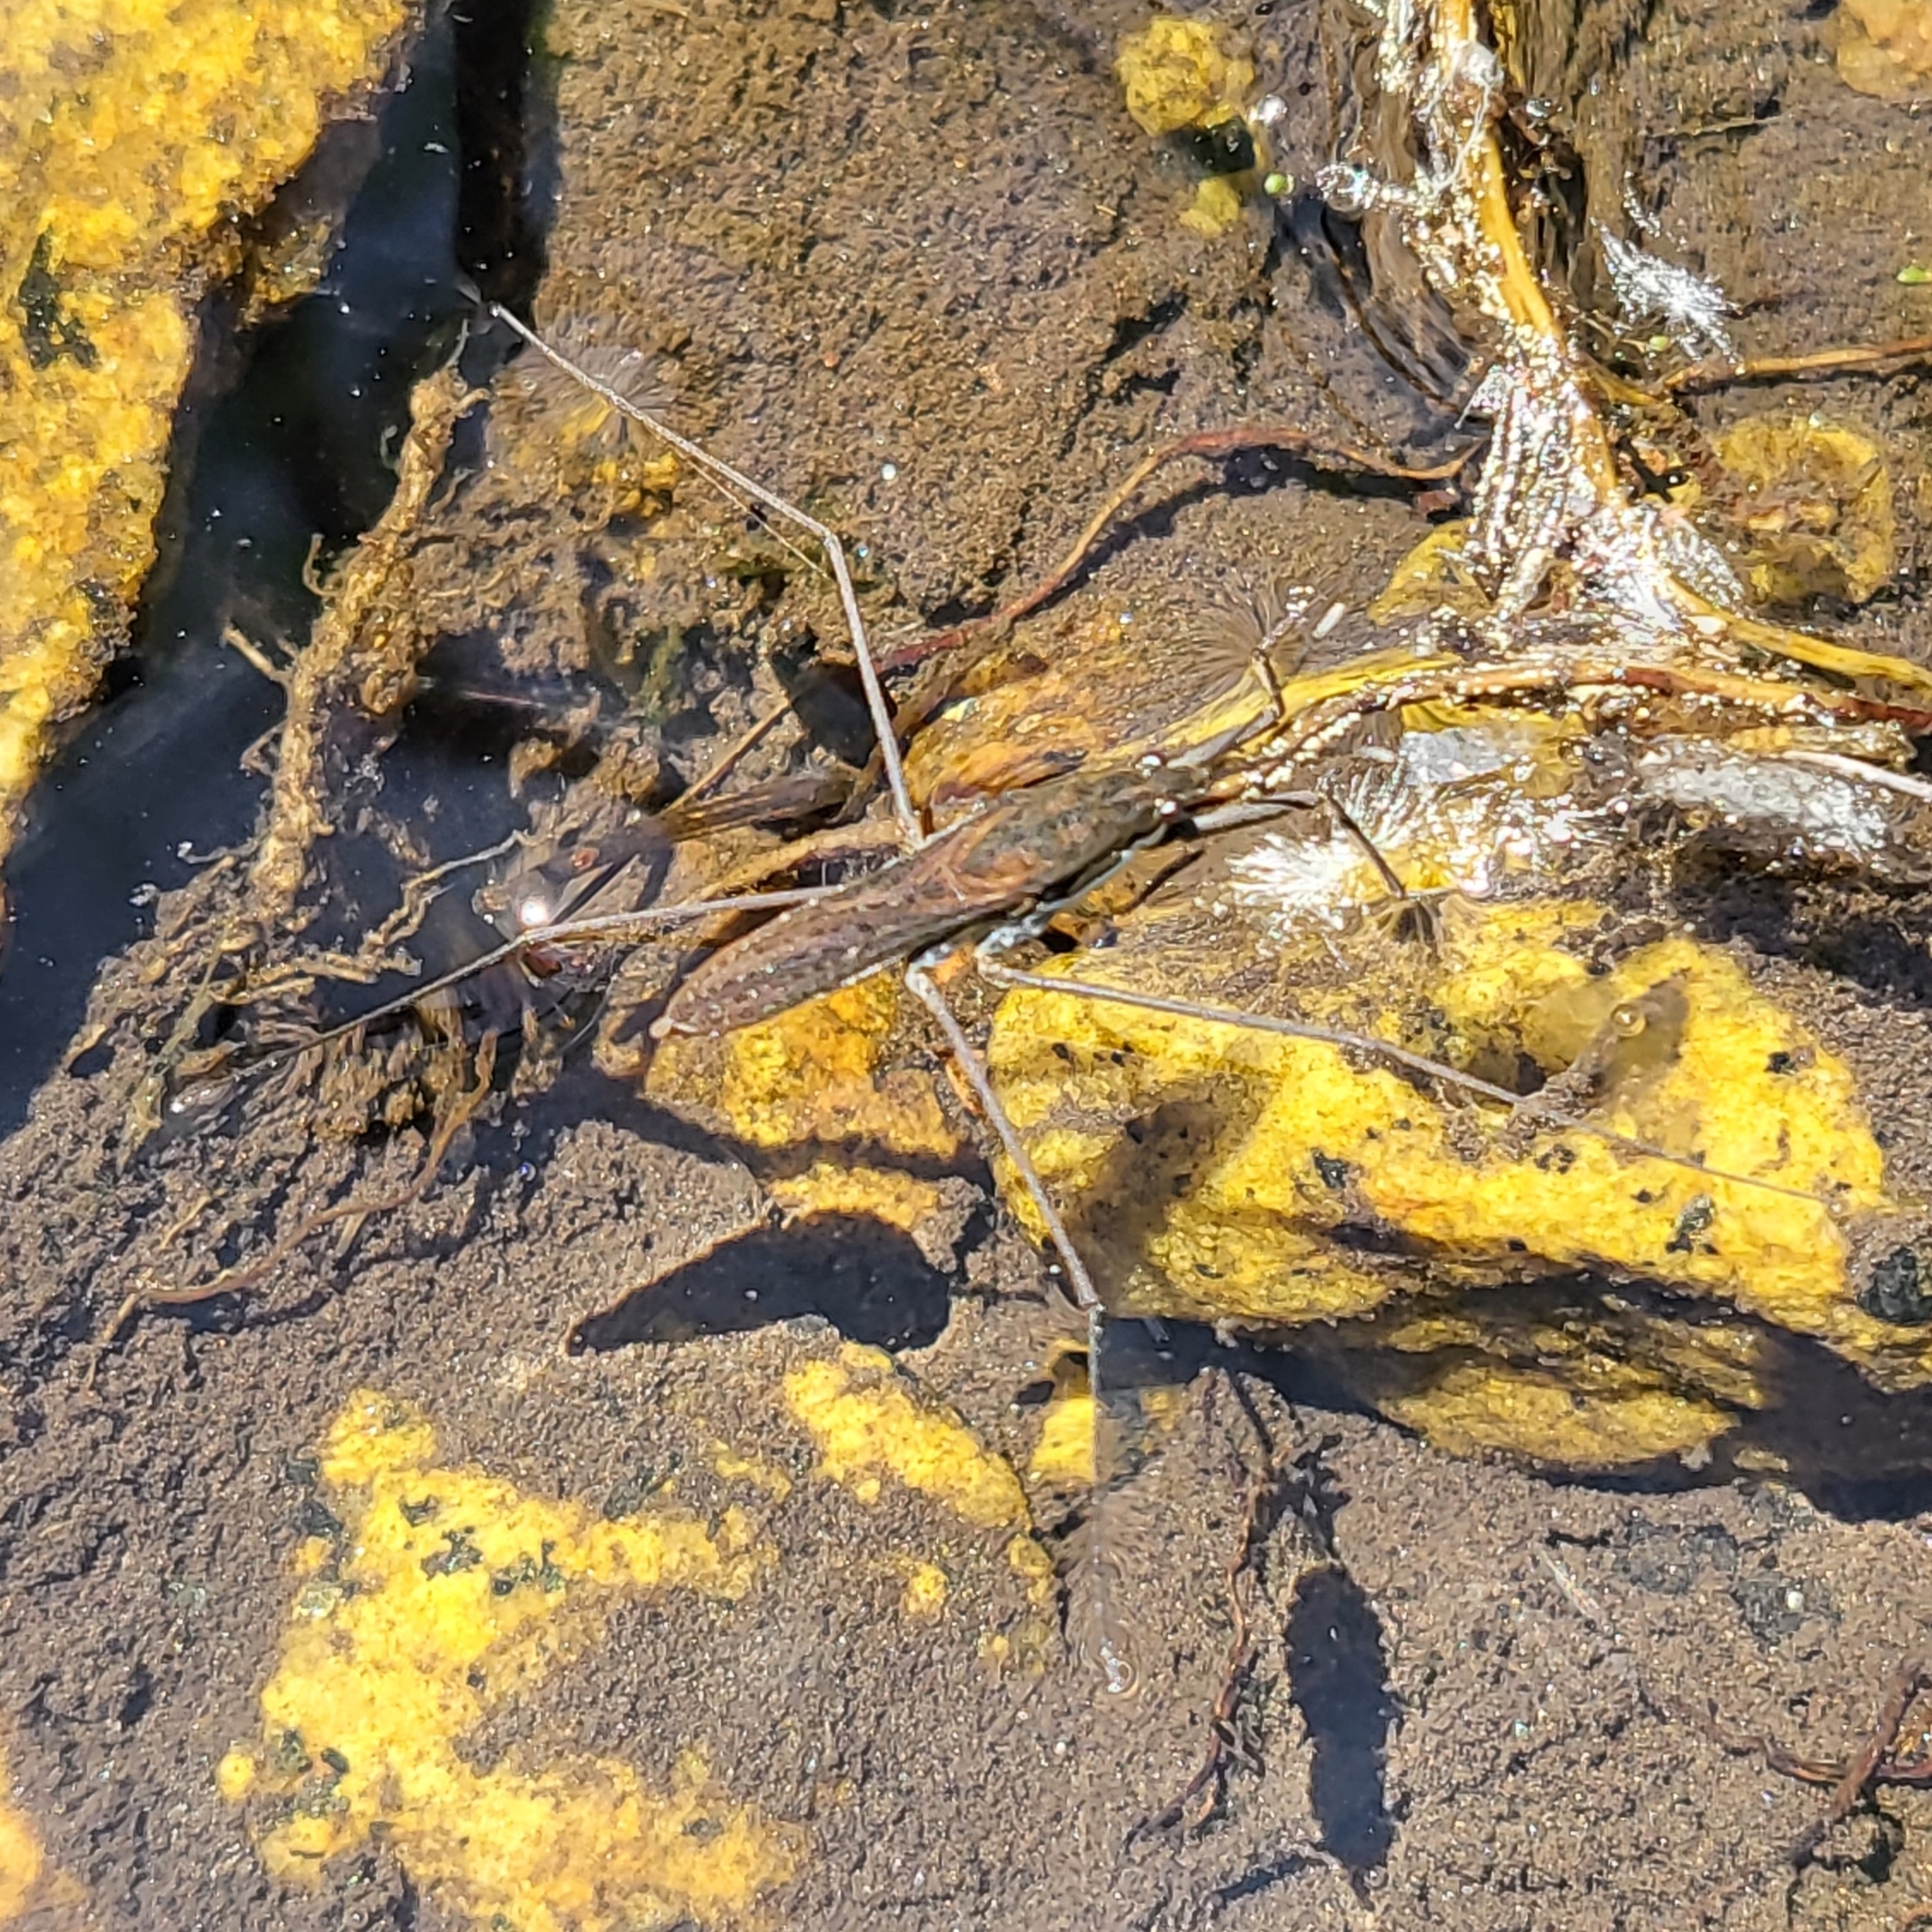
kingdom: Animalia
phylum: Arthropoda
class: Insecta
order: Hemiptera
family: Gerridae
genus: Aquarius
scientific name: Aquarius remigis
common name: Common water strider
